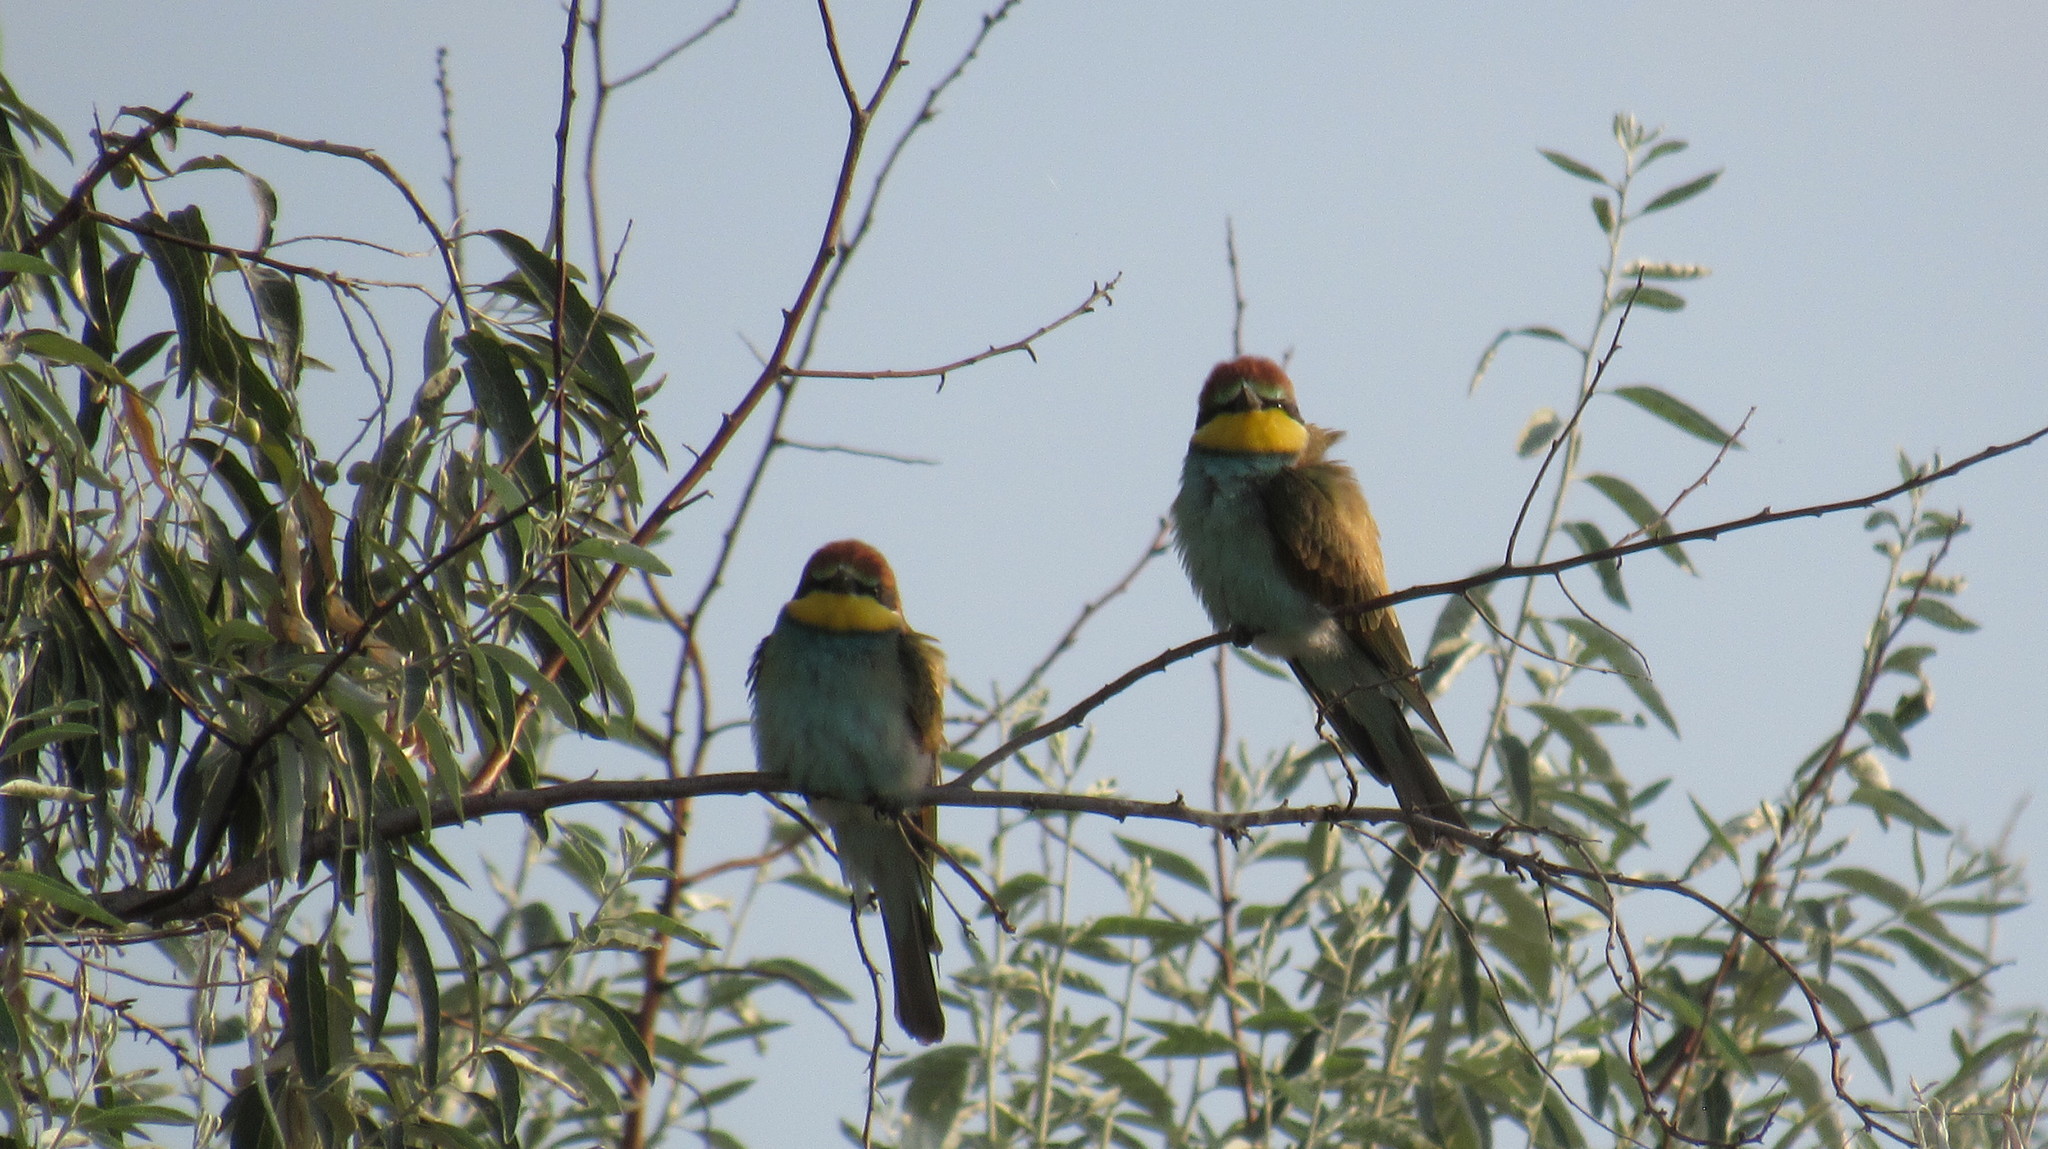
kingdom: Animalia
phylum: Chordata
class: Aves
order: Coraciiformes
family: Meropidae
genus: Merops
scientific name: Merops apiaster
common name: European bee-eater
